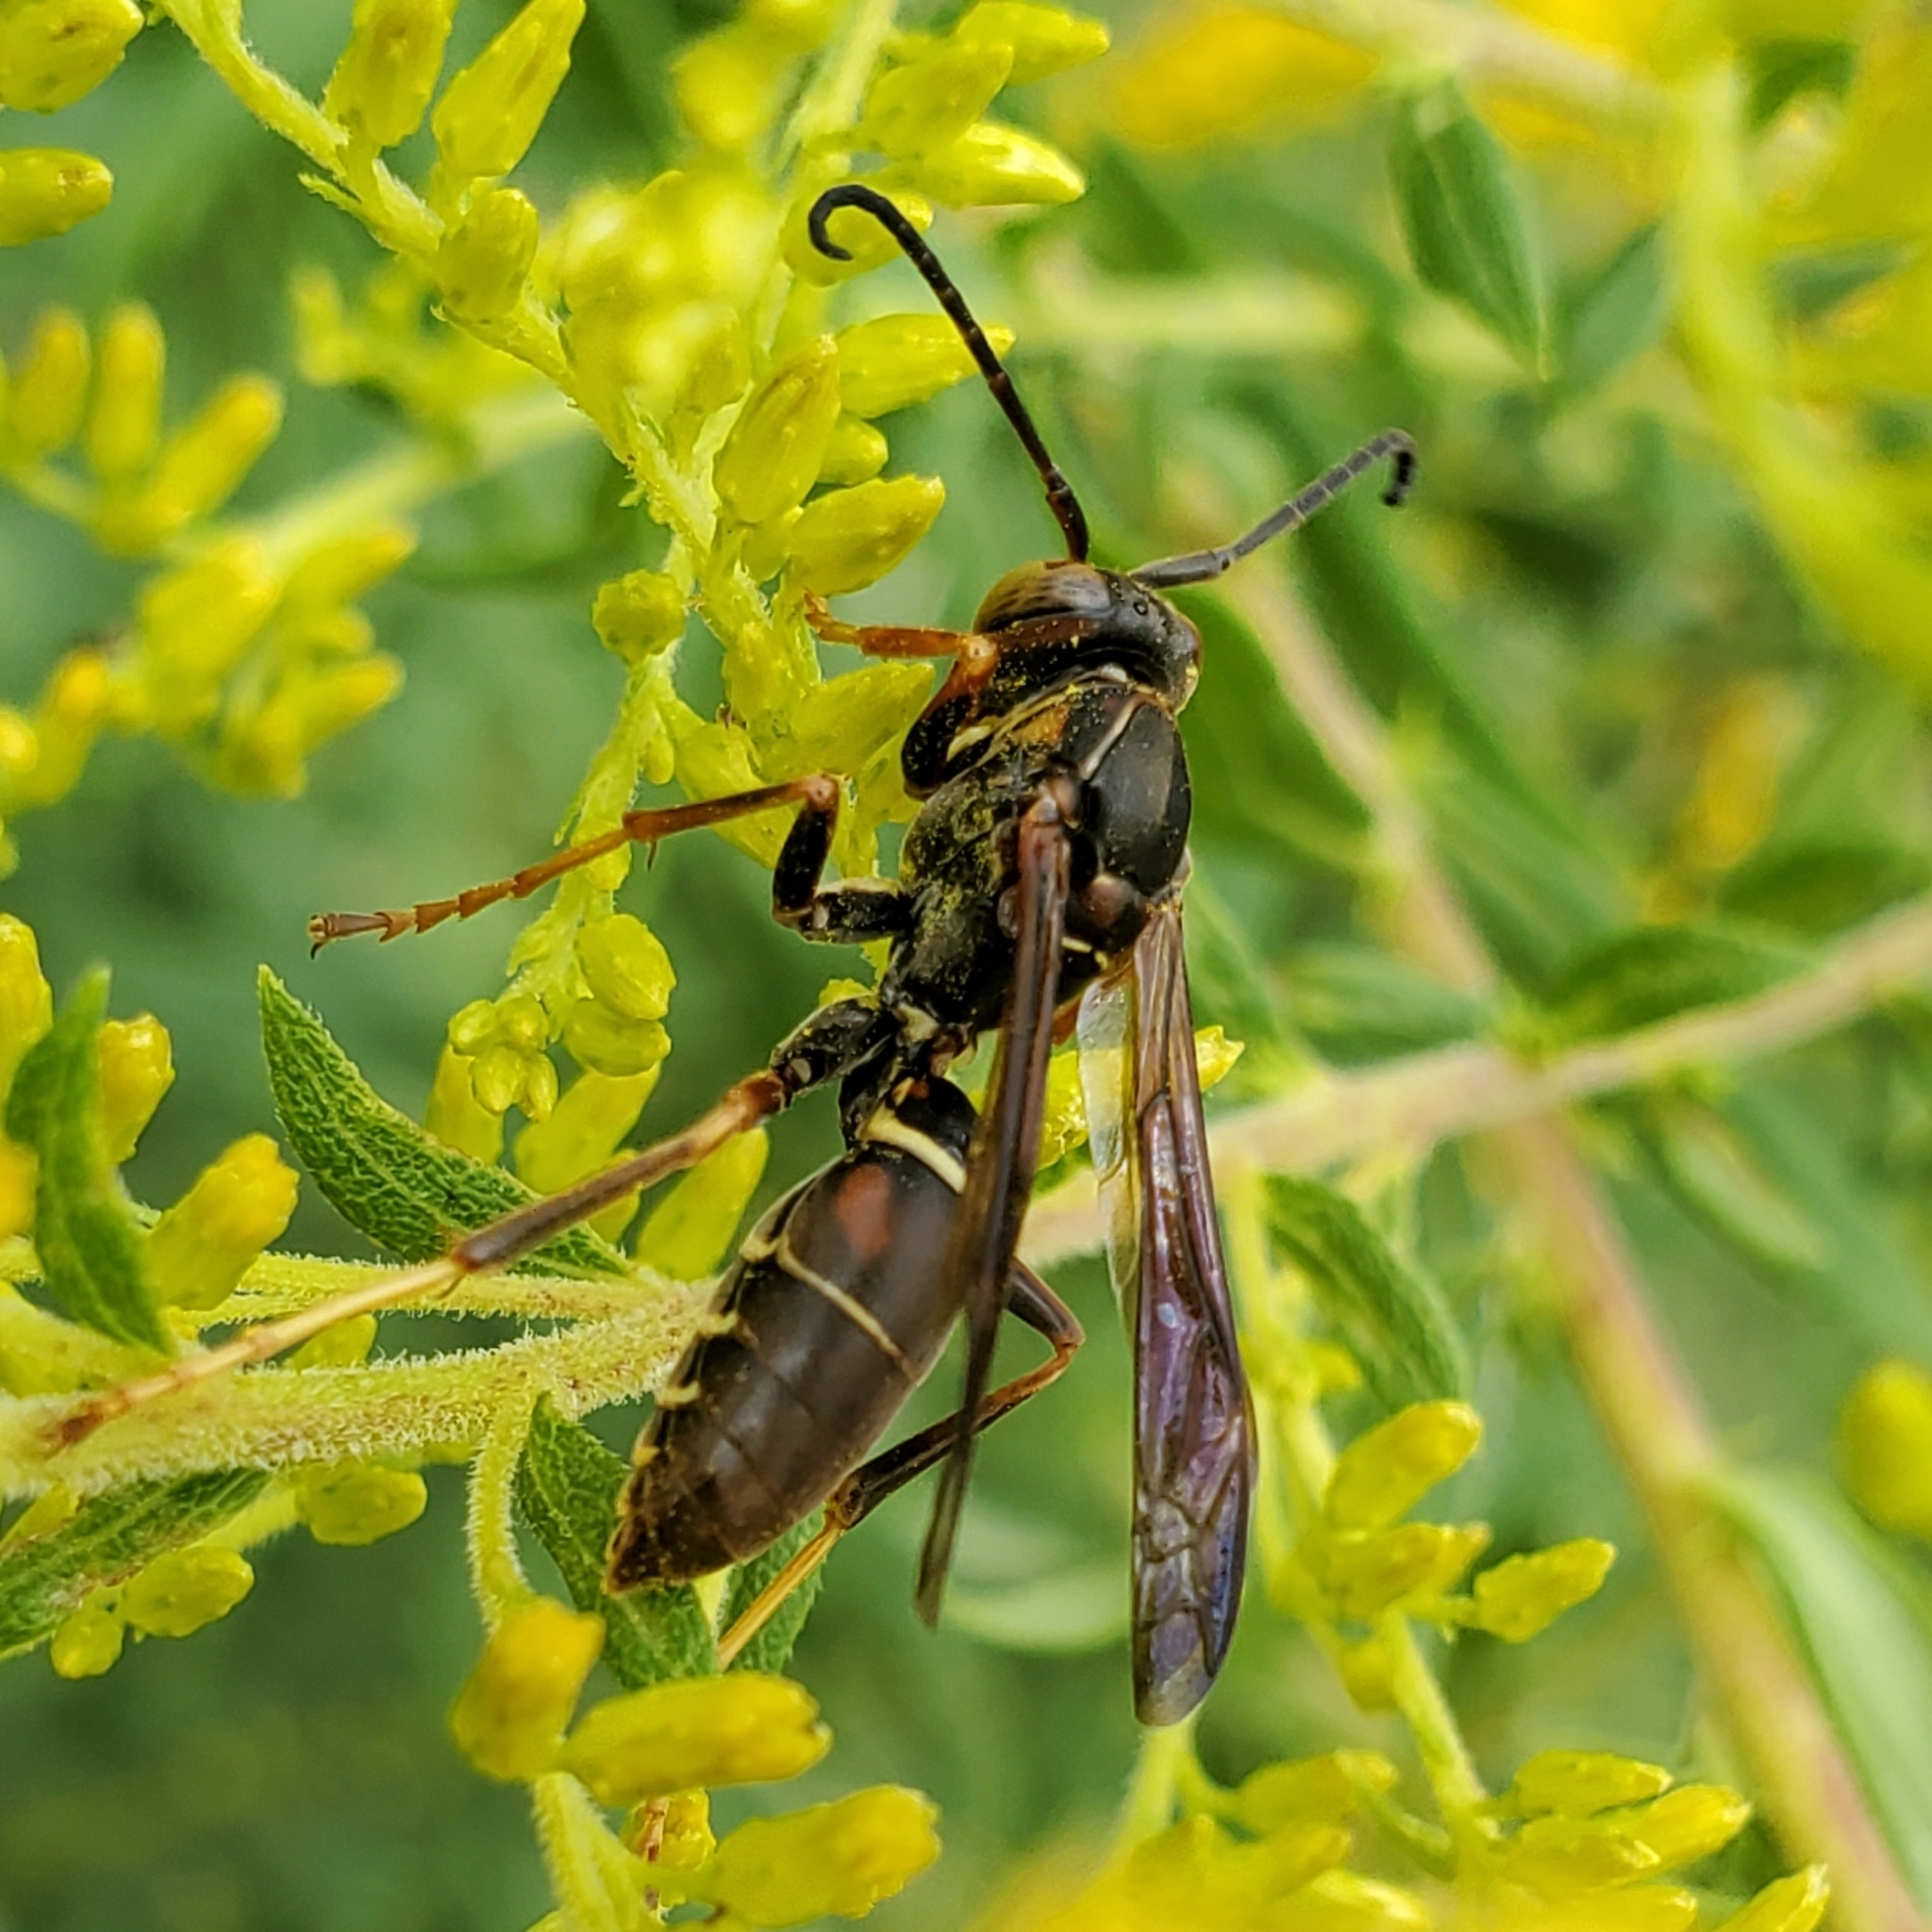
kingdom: Animalia
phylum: Arthropoda
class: Insecta
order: Hymenoptera
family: Eumenidae
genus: Polistes
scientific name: Polistes fuscatus
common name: Dark paper wasp
